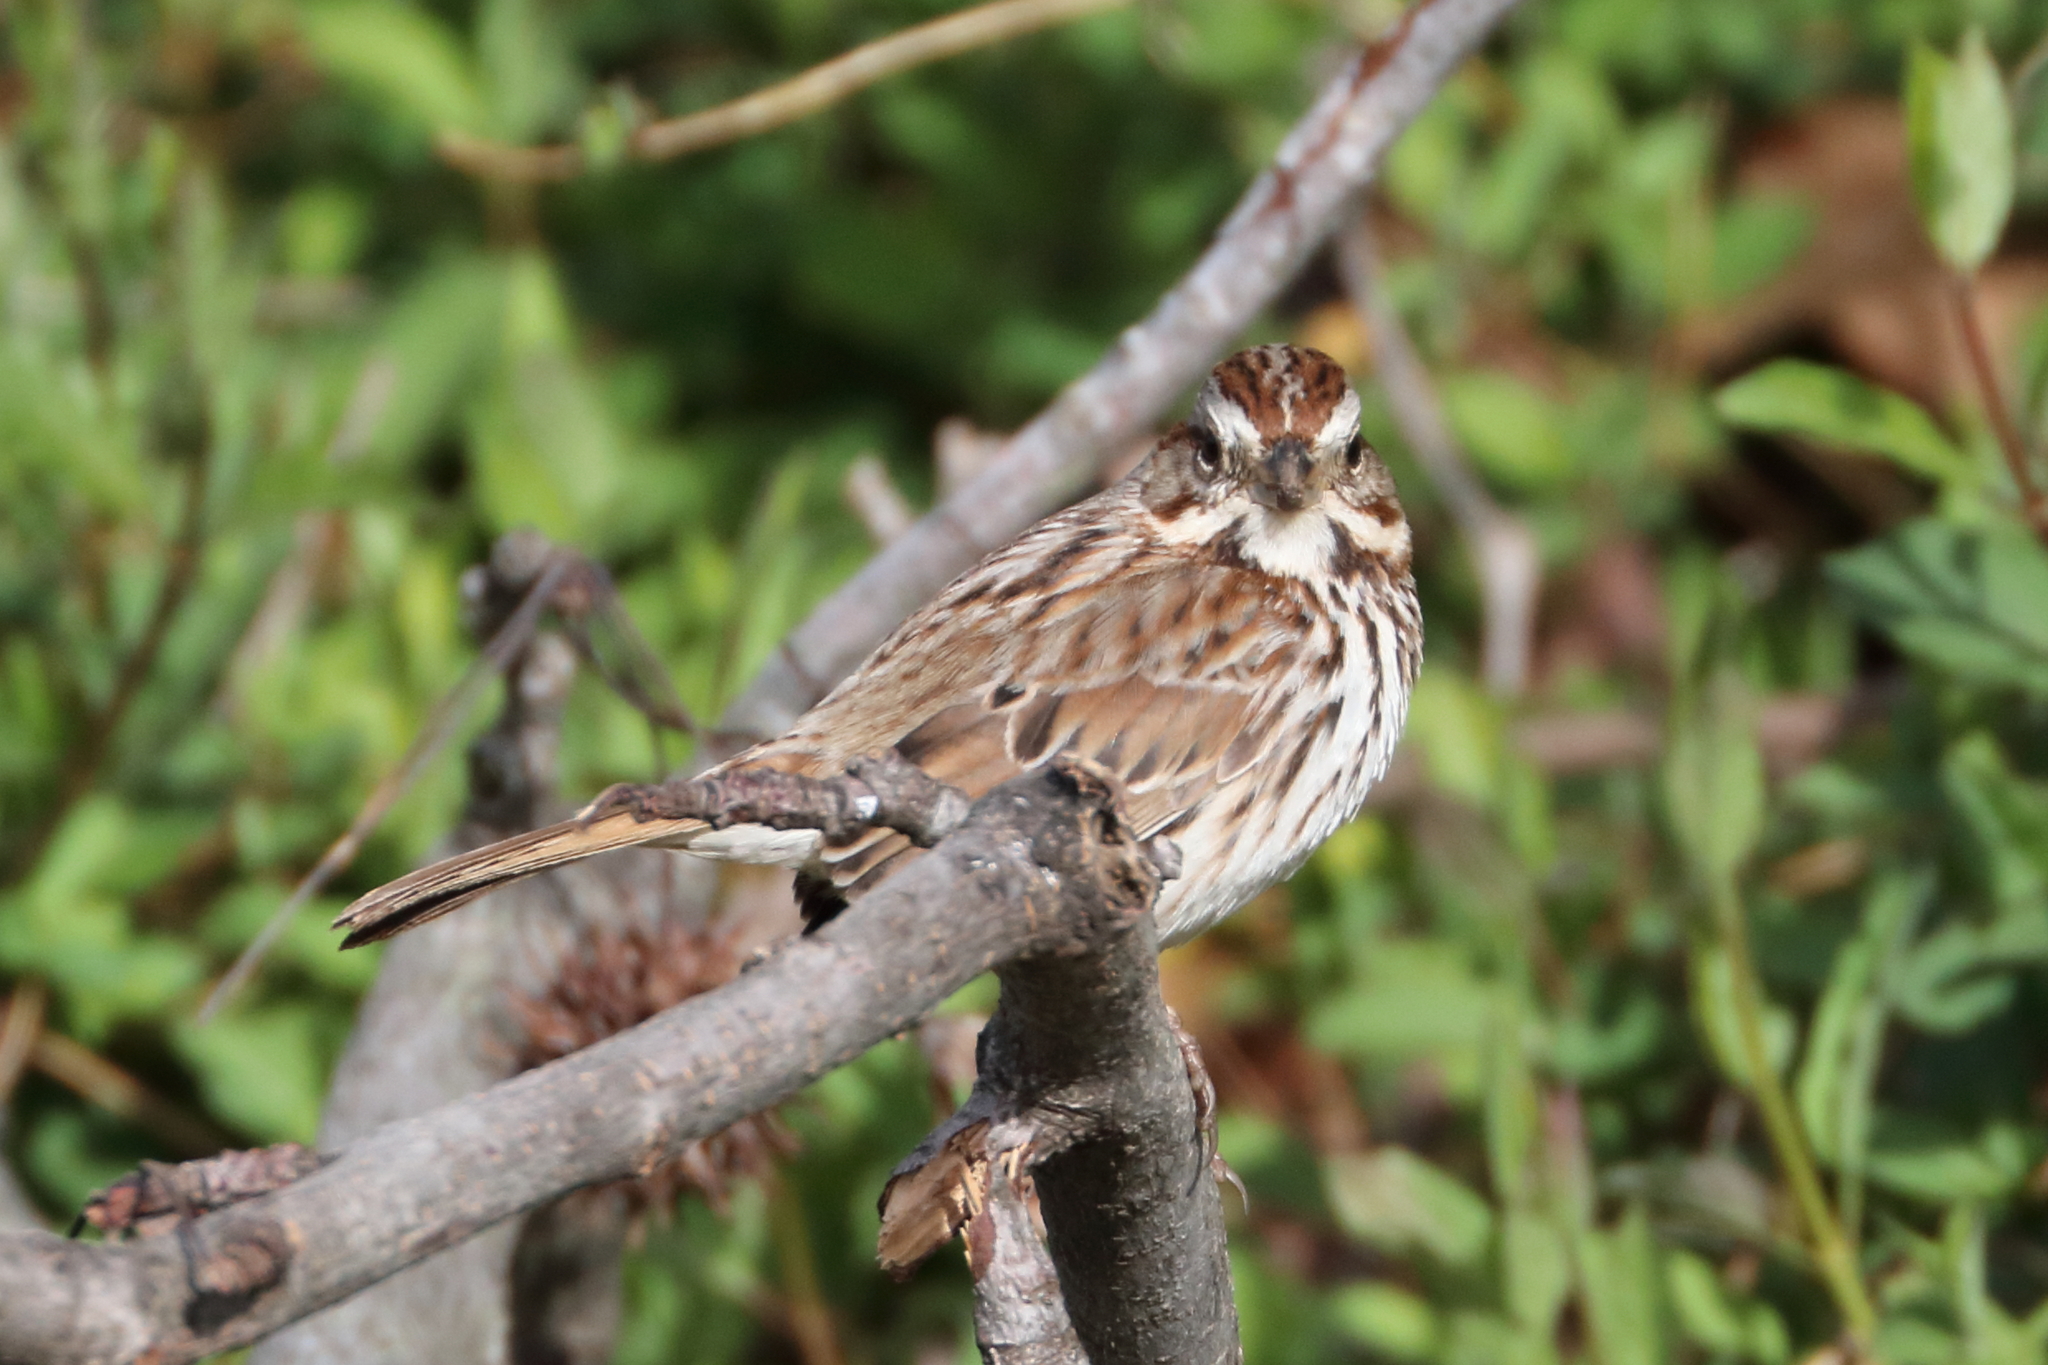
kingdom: Animalia
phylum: Chordata
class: Aves
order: Passeriformes
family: Passerellidae
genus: Melospiza
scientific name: Melospiza melodia
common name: Song sparrow
